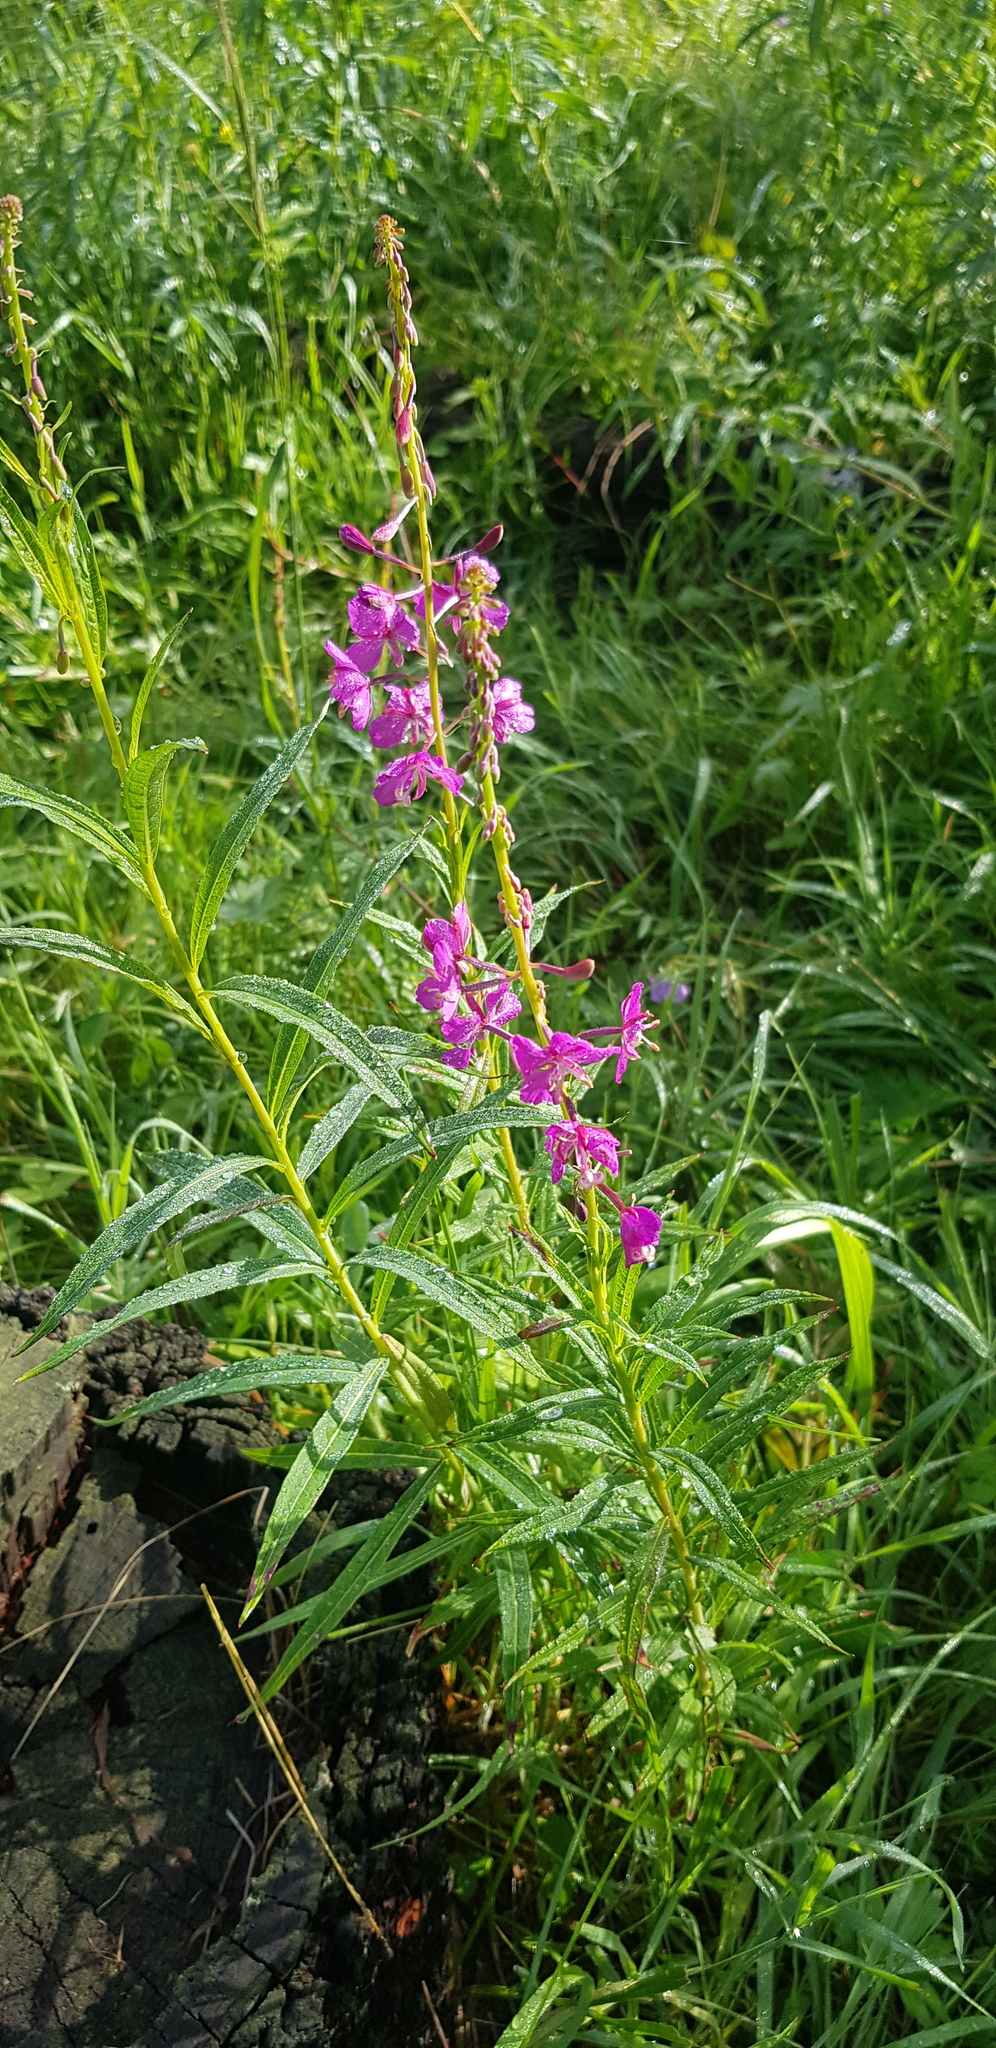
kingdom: Plantae
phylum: Tracheophyta
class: Magnoliopsida
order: Myrtales
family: Onagraceae
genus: Chamaenerion
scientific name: Chamaenerion angustifolium
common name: Fireweed
